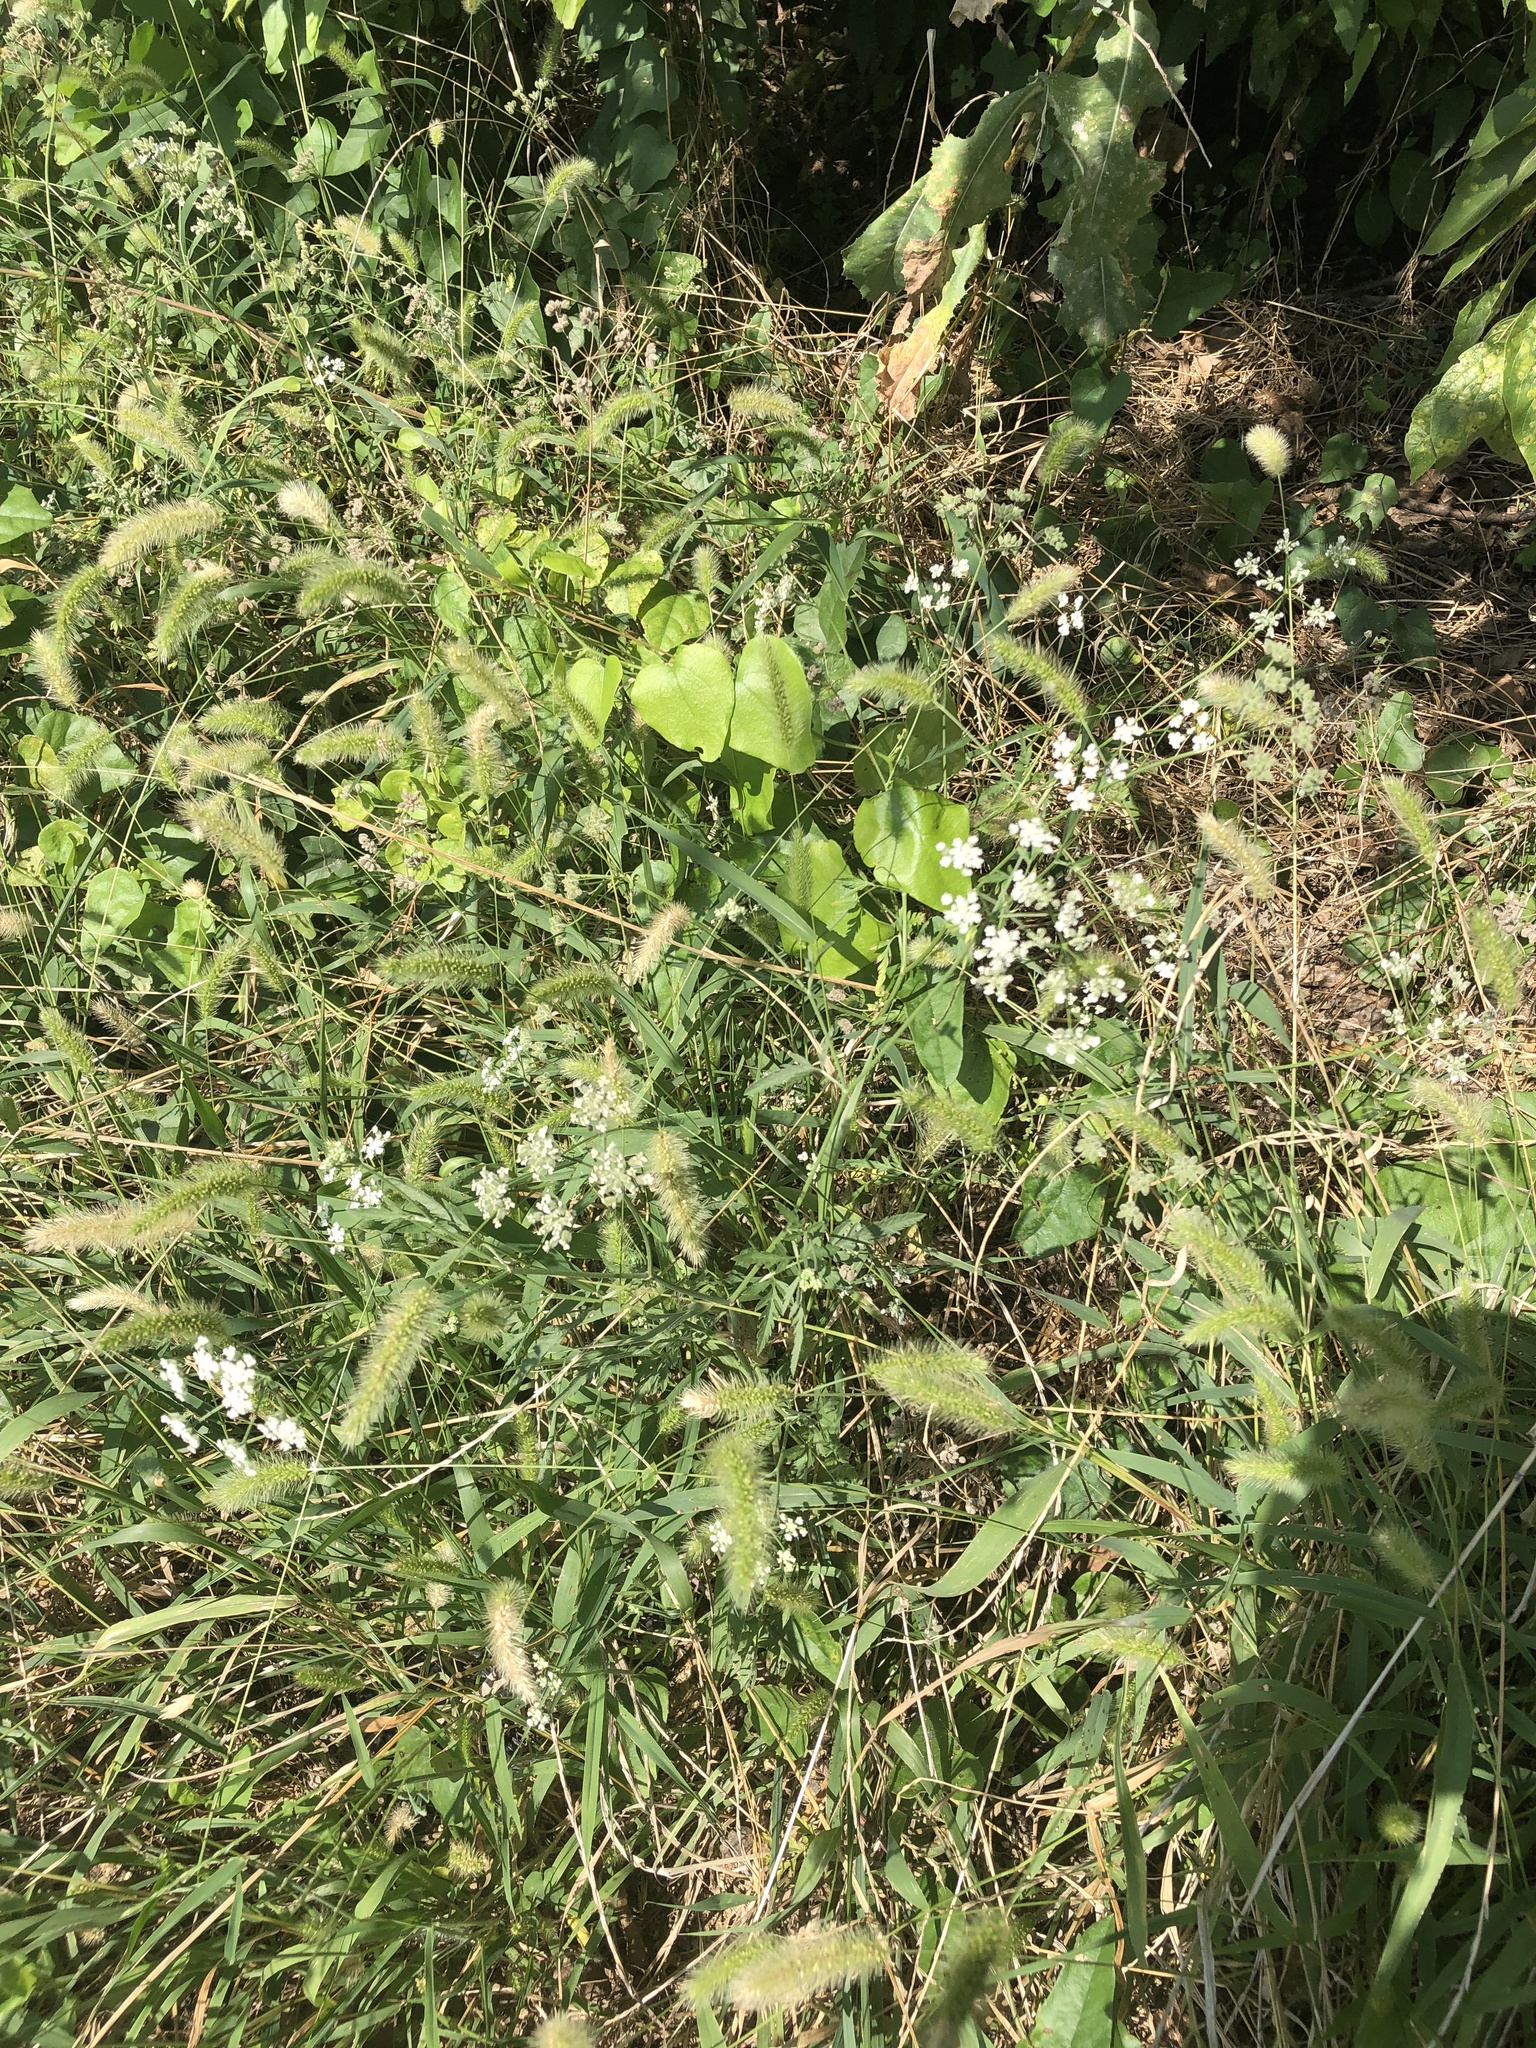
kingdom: Plantae
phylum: Tracheophyta
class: Magnoliopsida
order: Apiales
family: Apiaceae
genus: Torilis
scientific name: Torilis arvensis
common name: Spreading hedge-parsley
